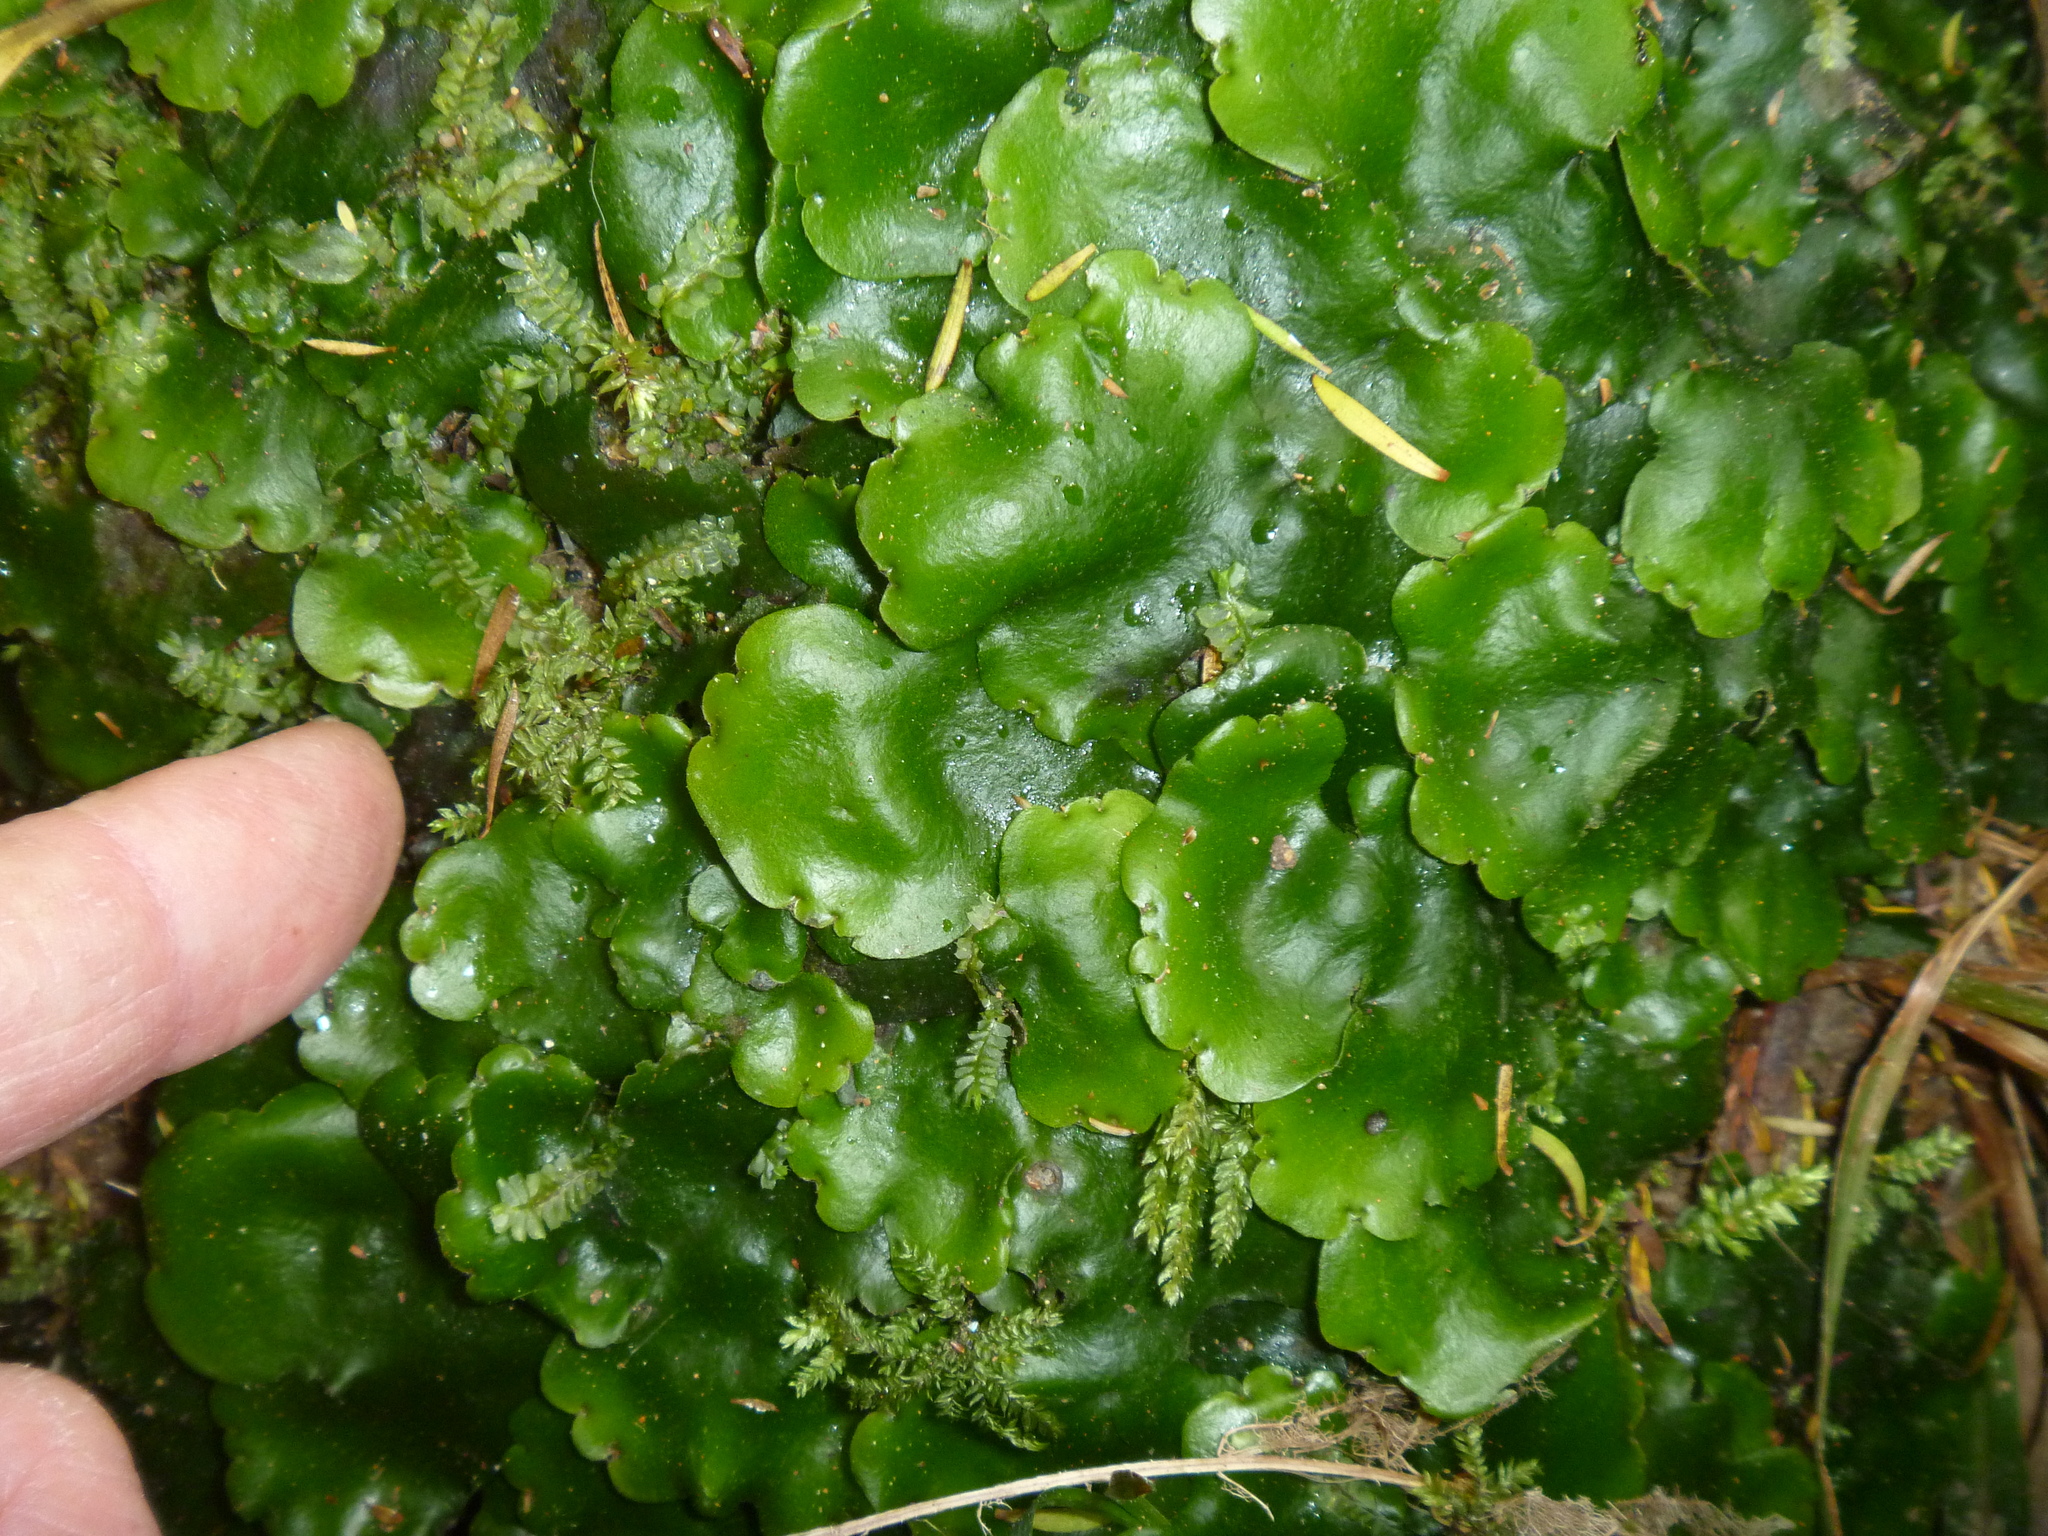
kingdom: Plantae
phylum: Marchantiophyta
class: Marchantiopsida
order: Marchantiales
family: Monocleaceae
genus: Monoclea
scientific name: Monoclea forsteri
